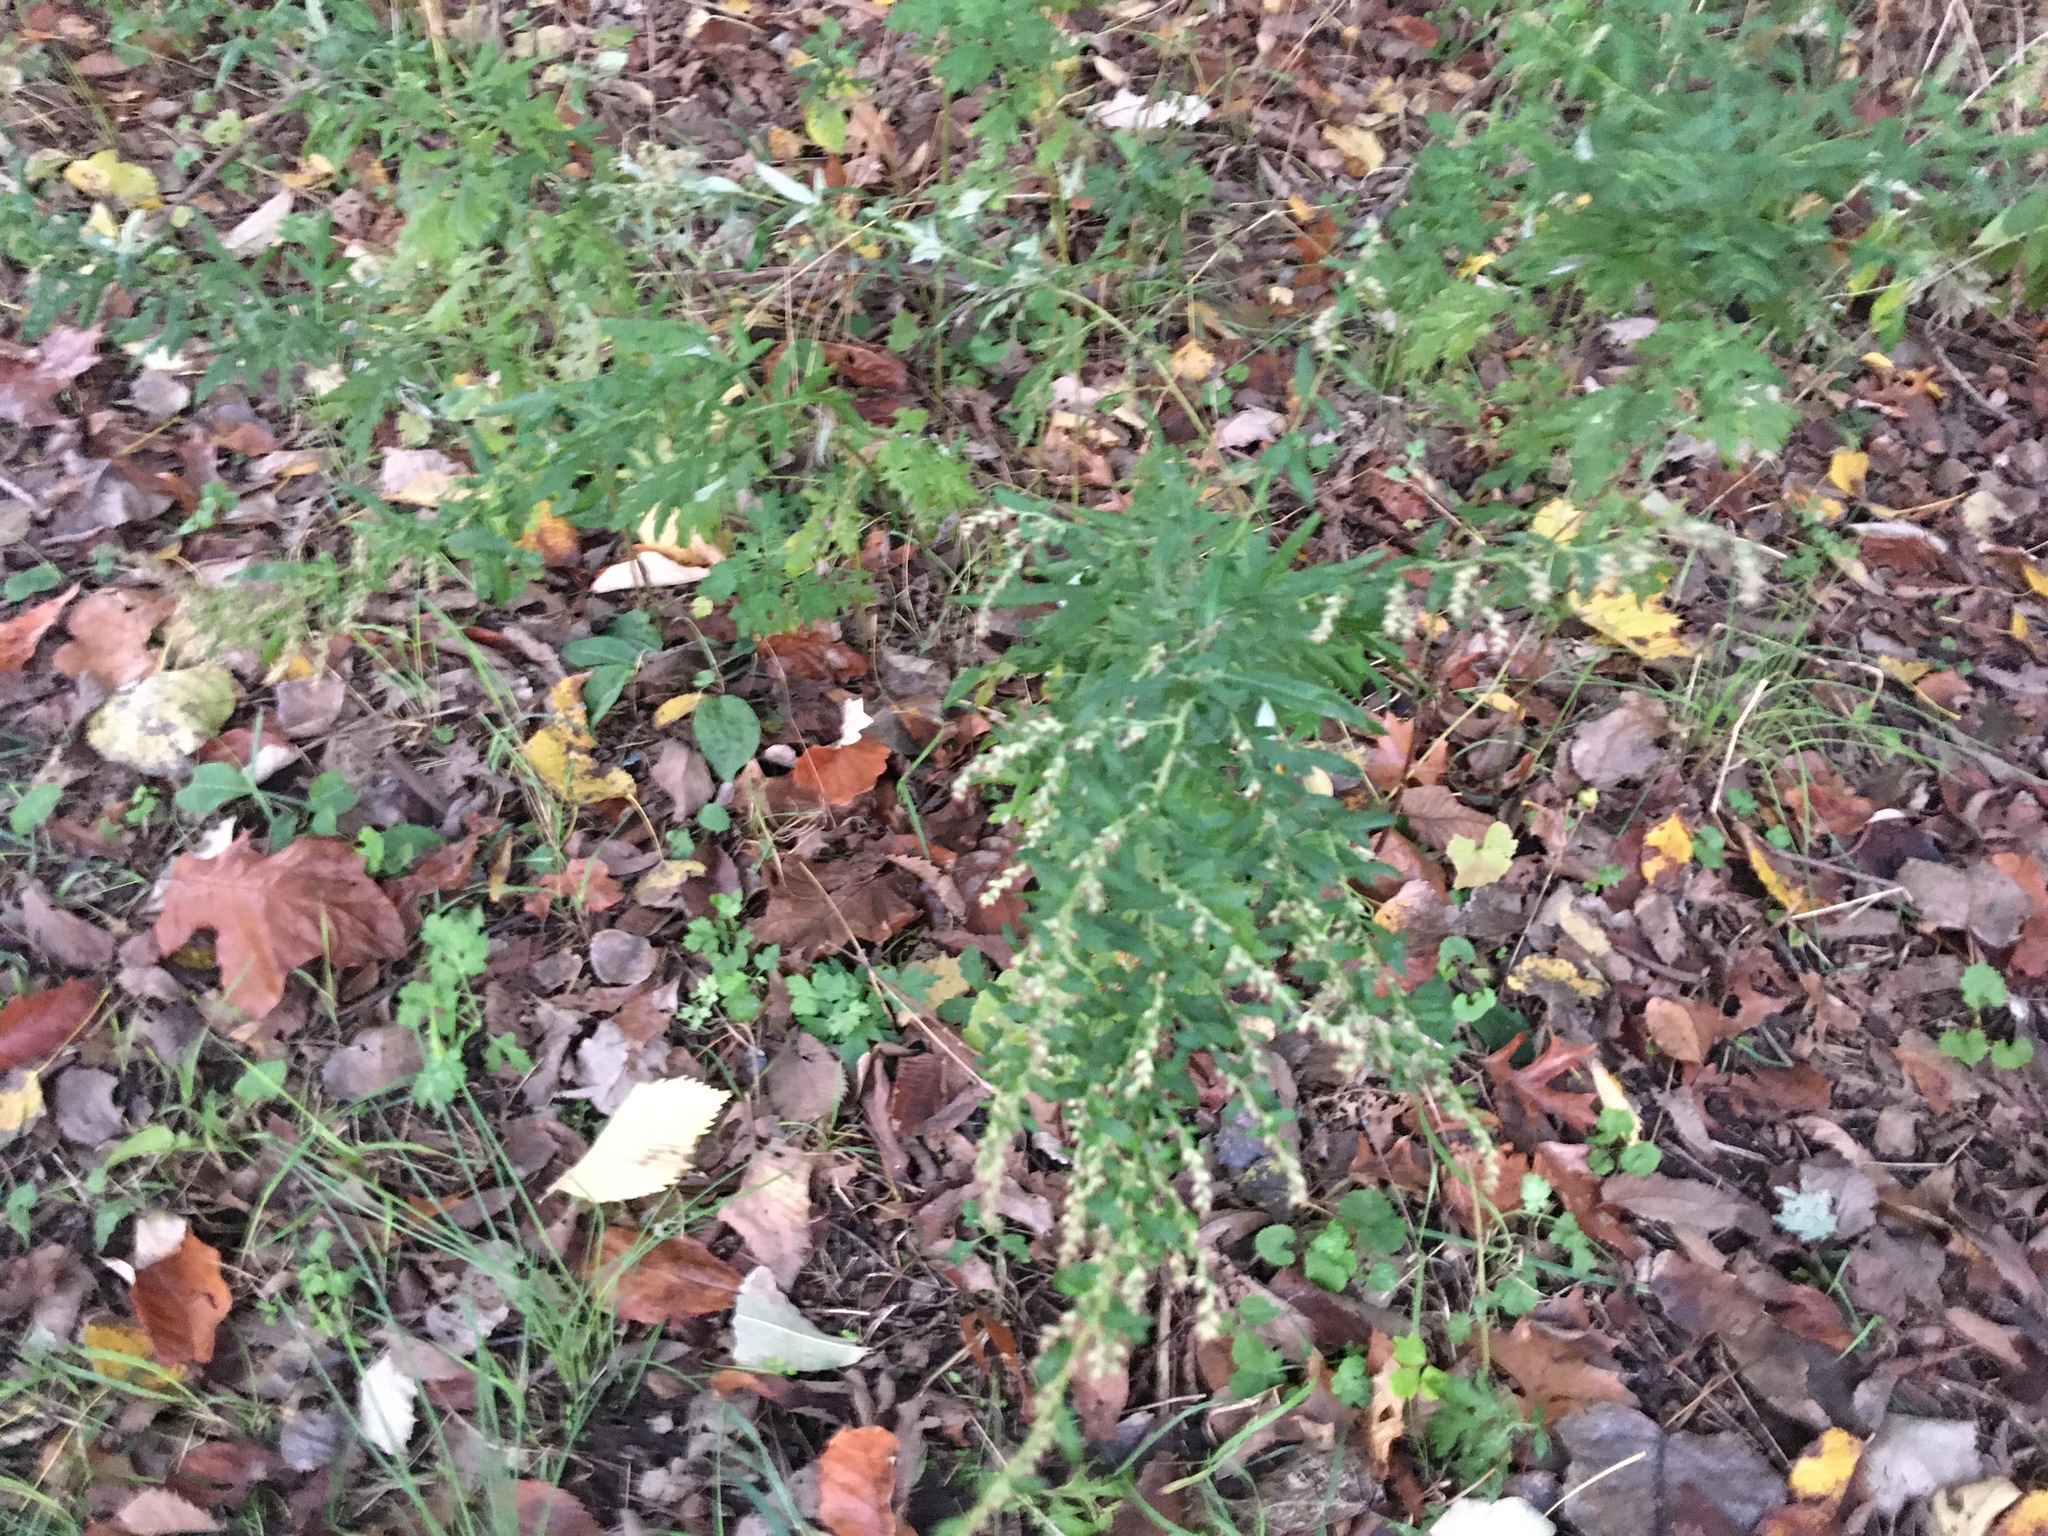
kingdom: Plantae
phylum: Tracheophyta
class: Magnoliopsida
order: Asterales
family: Asteraceae
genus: Artemisia
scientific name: Artemisia vulgaris
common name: Mugwort
